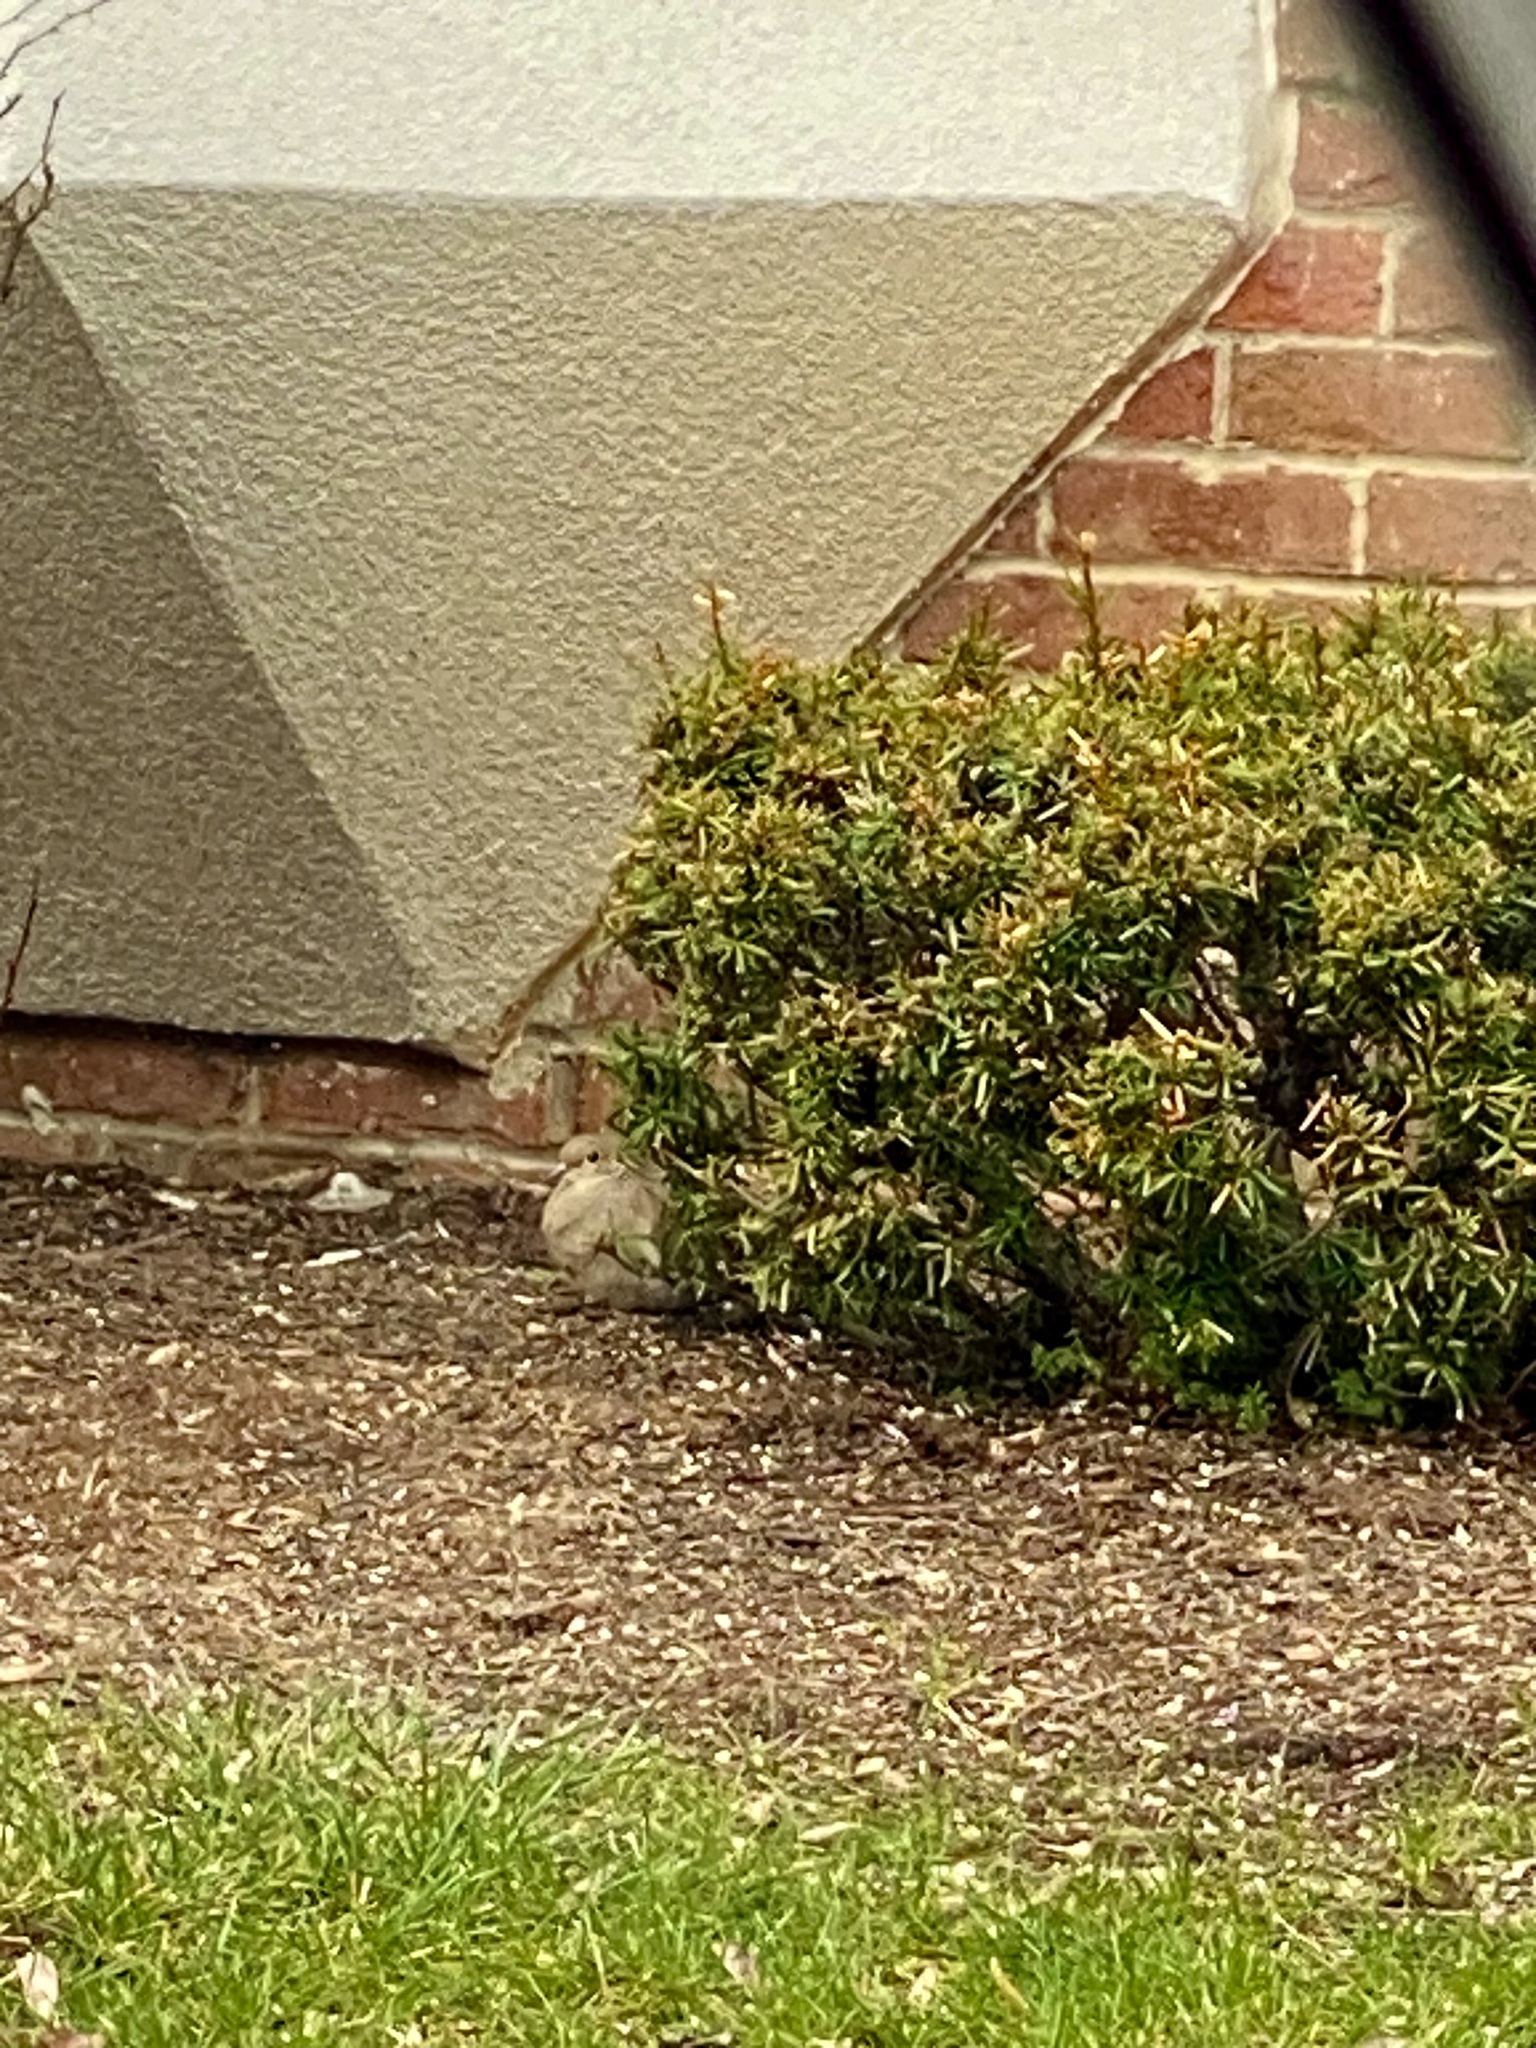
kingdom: Animalia
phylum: Chordata
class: Aves
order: Columbiformes
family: Columbidae
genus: Zenaida
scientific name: Zenaida macroura
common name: Mourning dove
